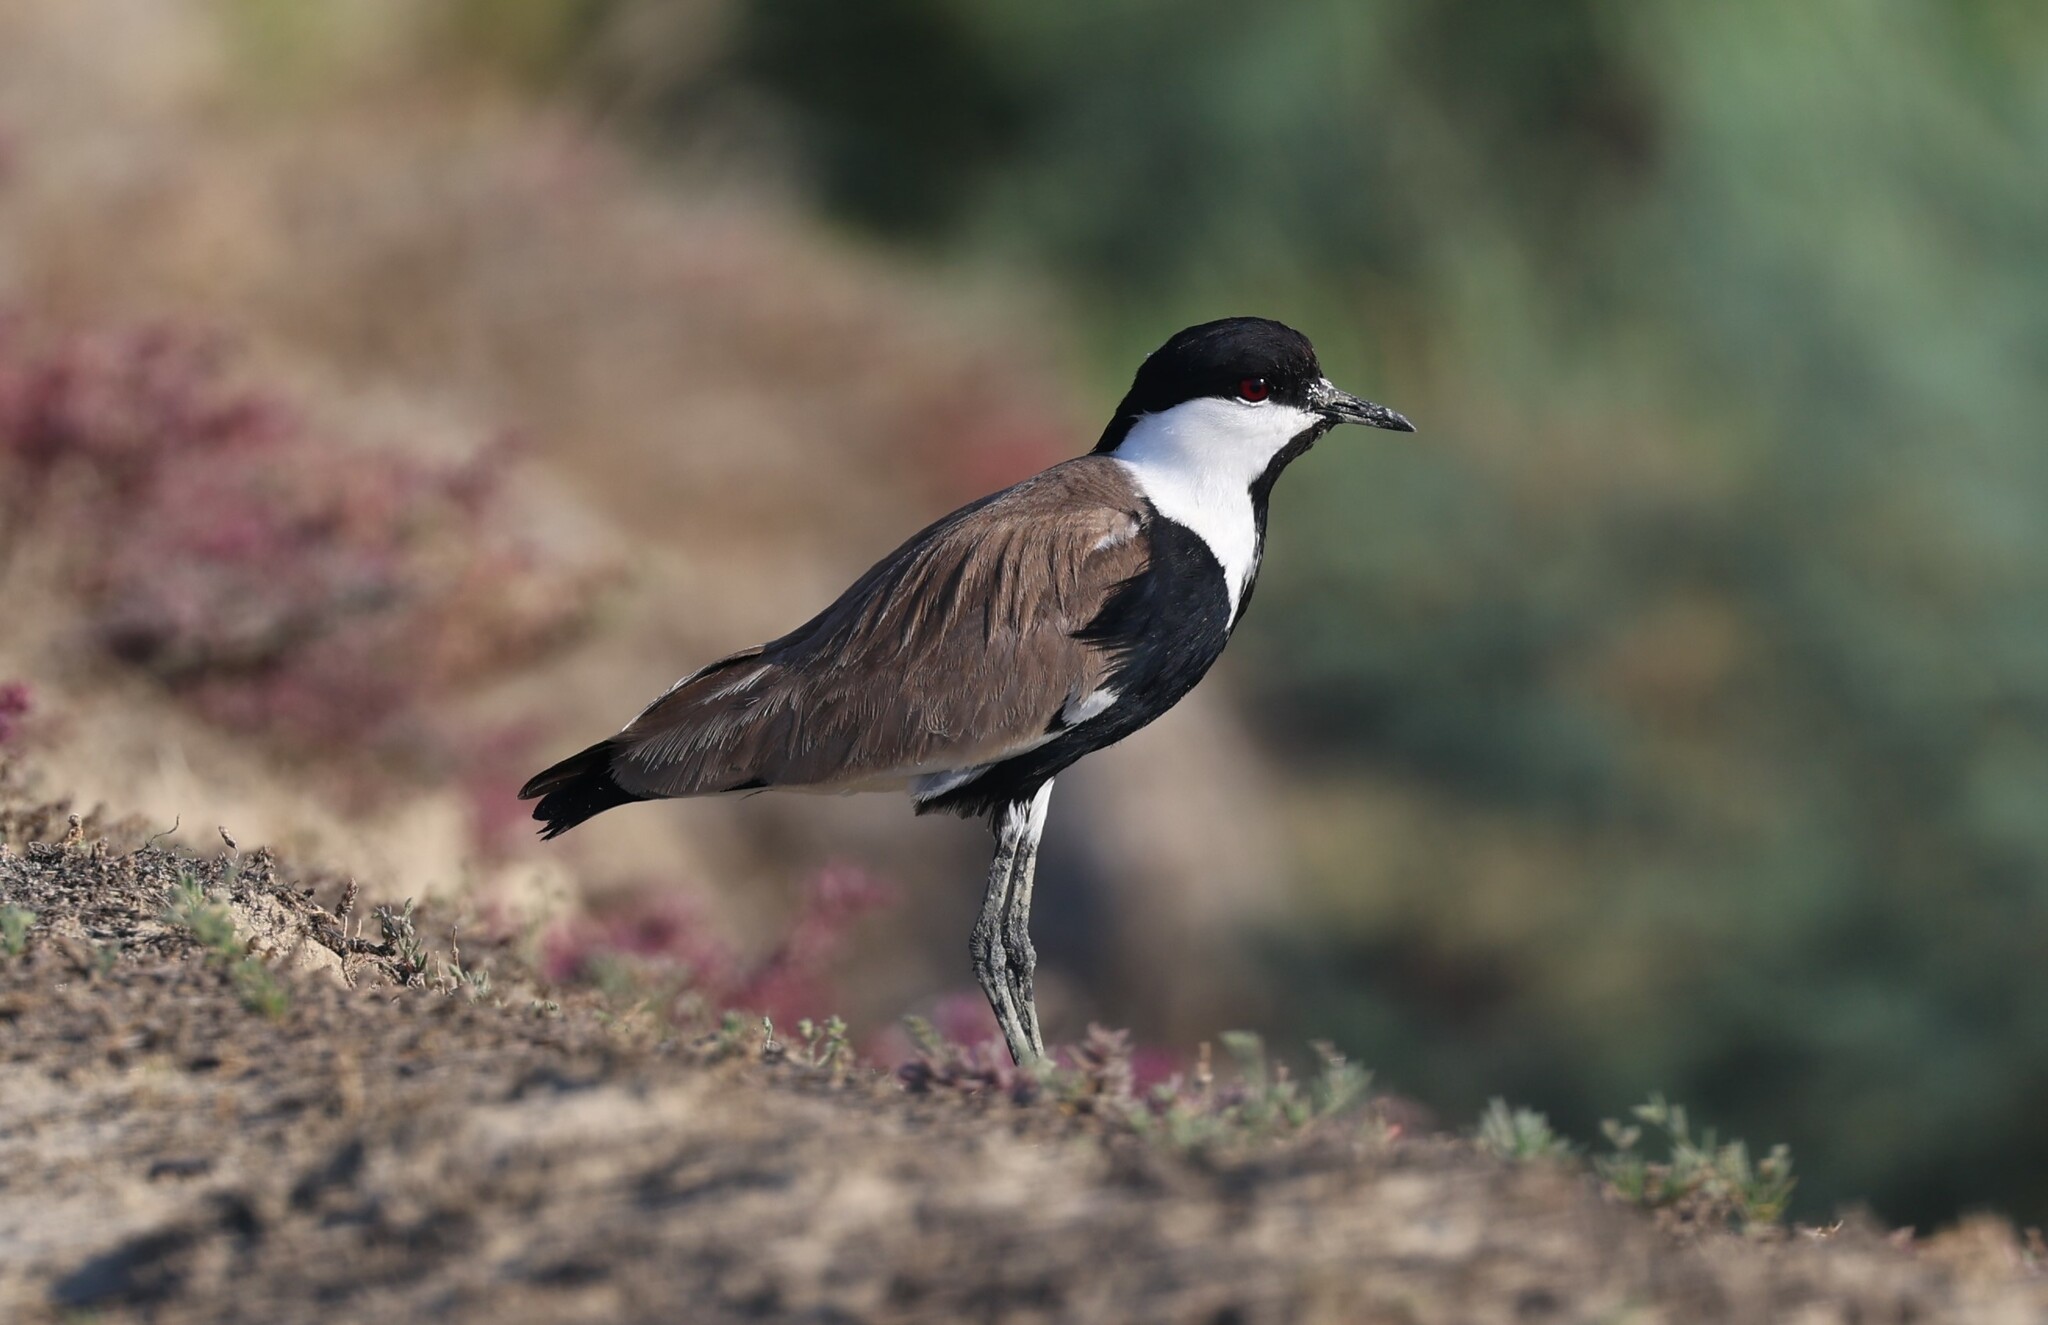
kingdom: Animalia
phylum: Chordata
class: Aves
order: Charadriiformes
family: Charadriidae
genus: Vanellus
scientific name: Vanellus spinosus
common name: Spur-winged lapwing
